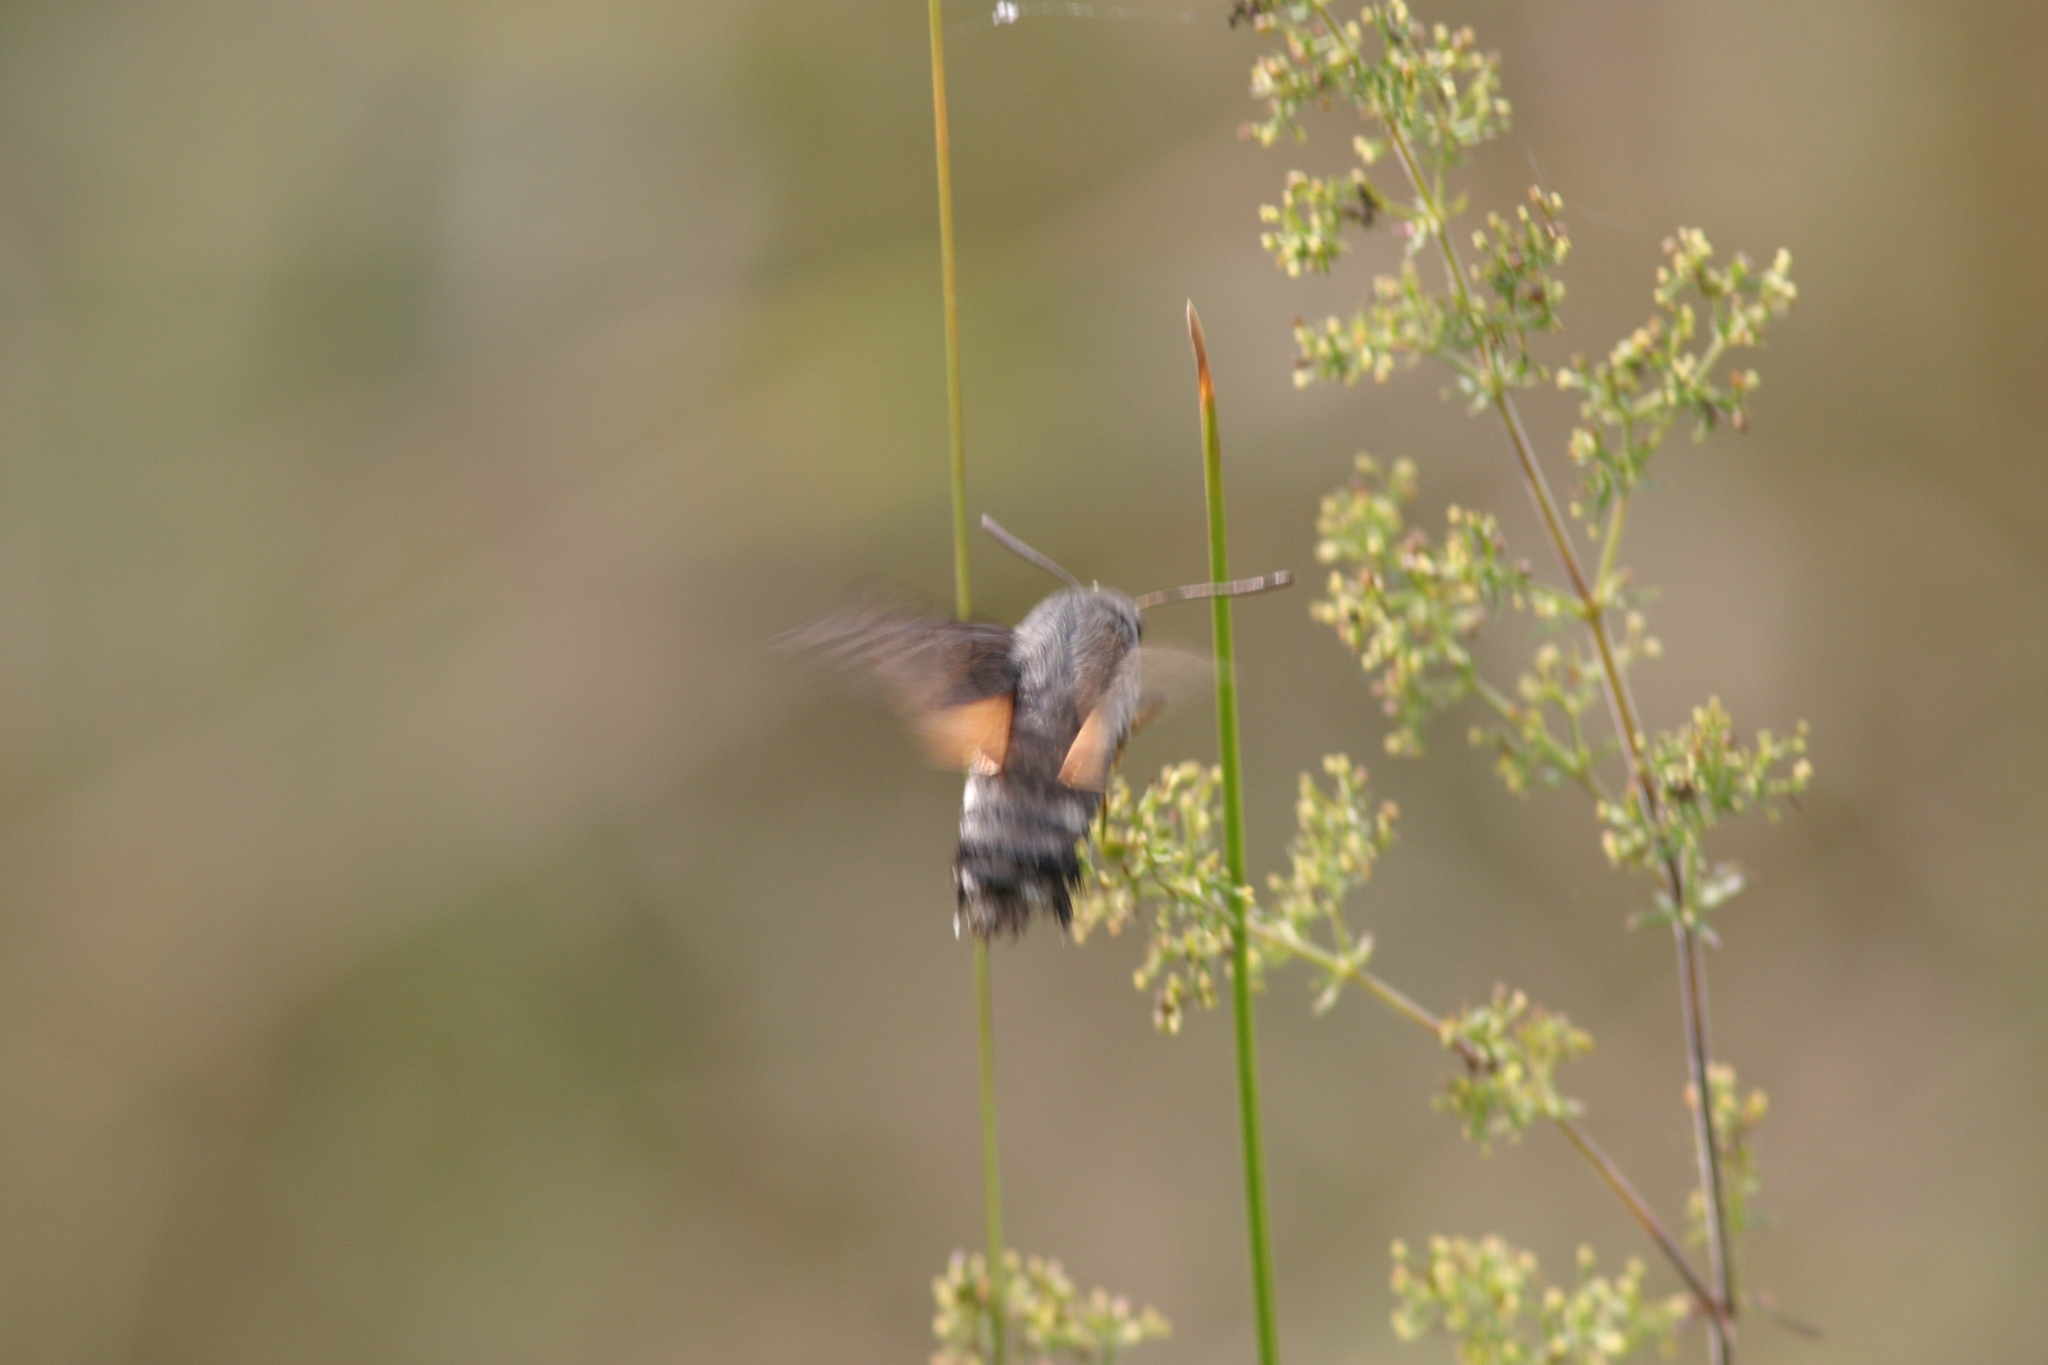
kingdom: Animalia
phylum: Arthropoda
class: Insecta
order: Lepidoptera
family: Sphingidae
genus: Macroglossum
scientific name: Macroglossum stellatarum
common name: Humming-bird hawk-moth
